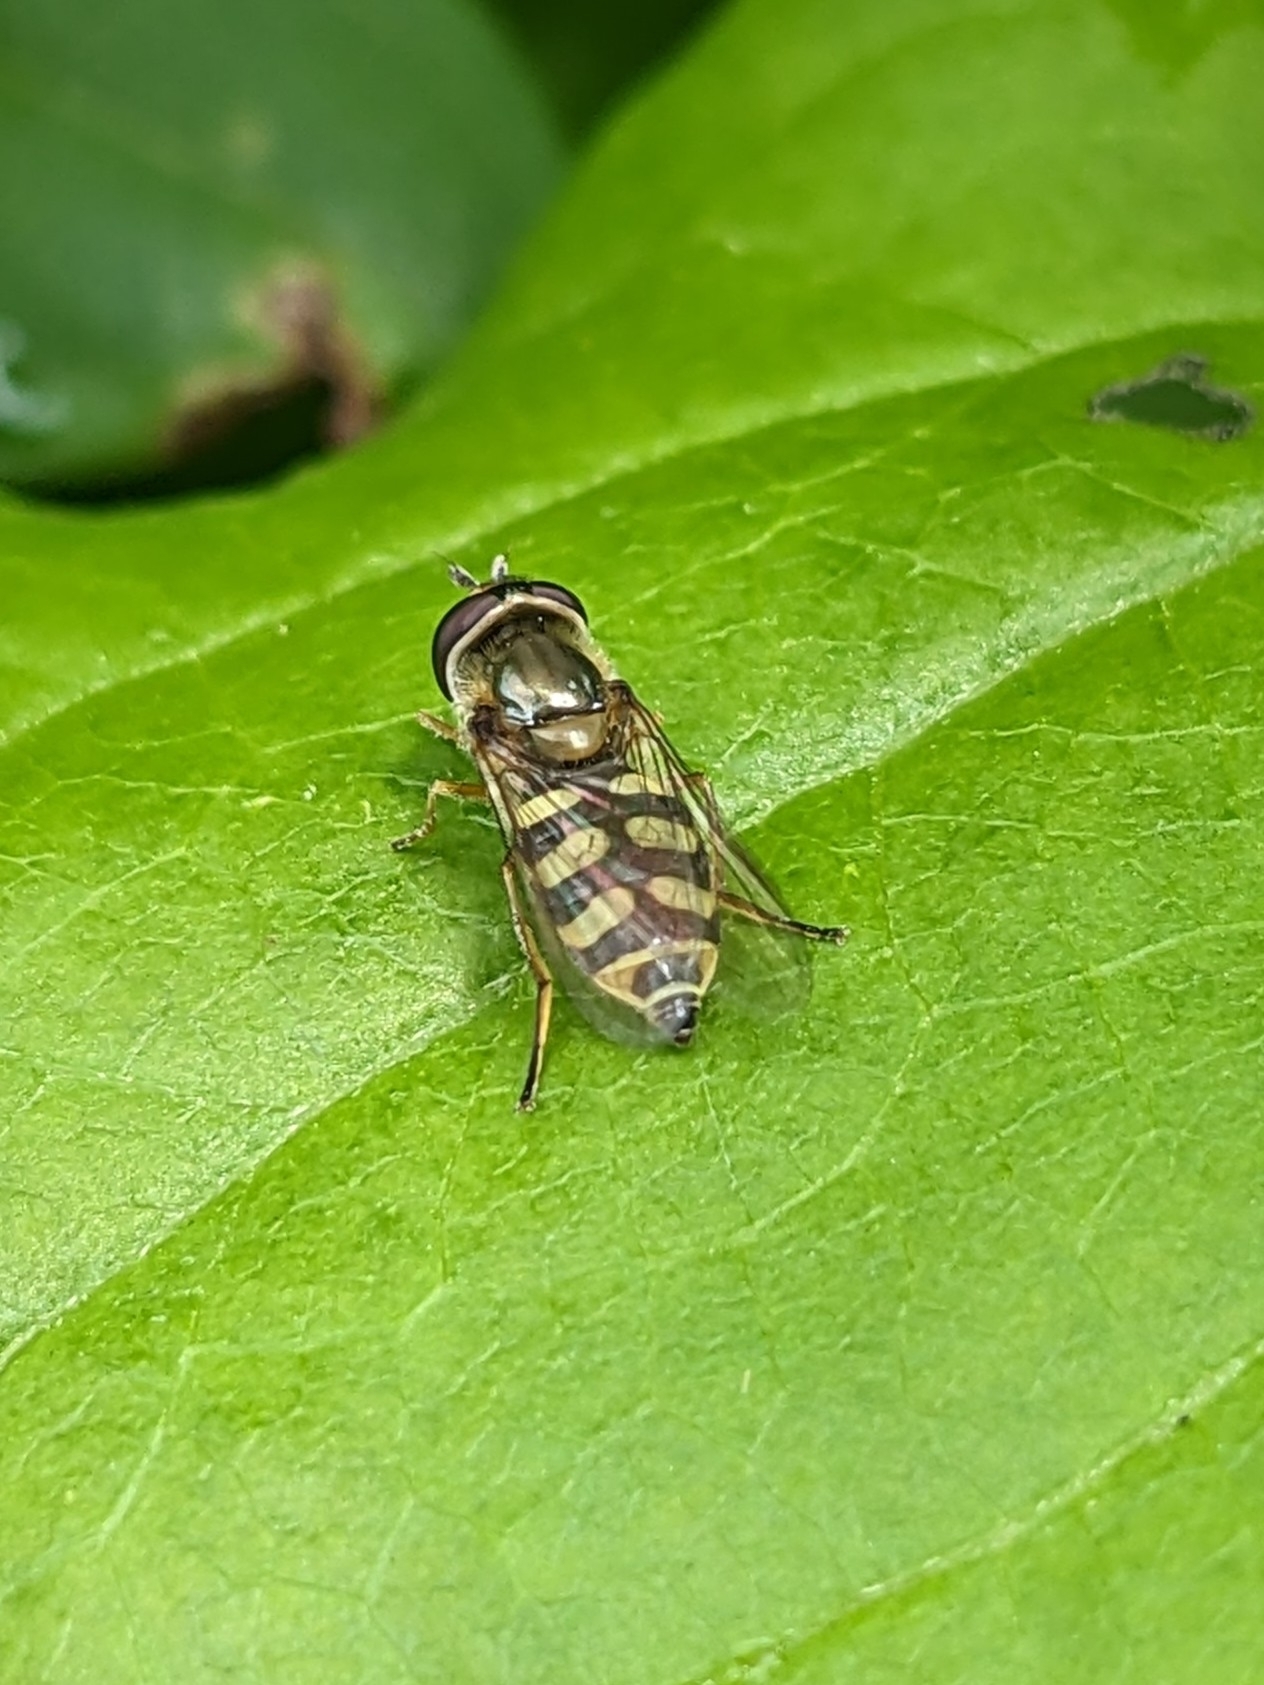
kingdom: Animalia
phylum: Arthropoda
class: Insecta
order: Diptera
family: Syrphidae
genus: Eupeodes
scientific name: Eupeodes corollae
